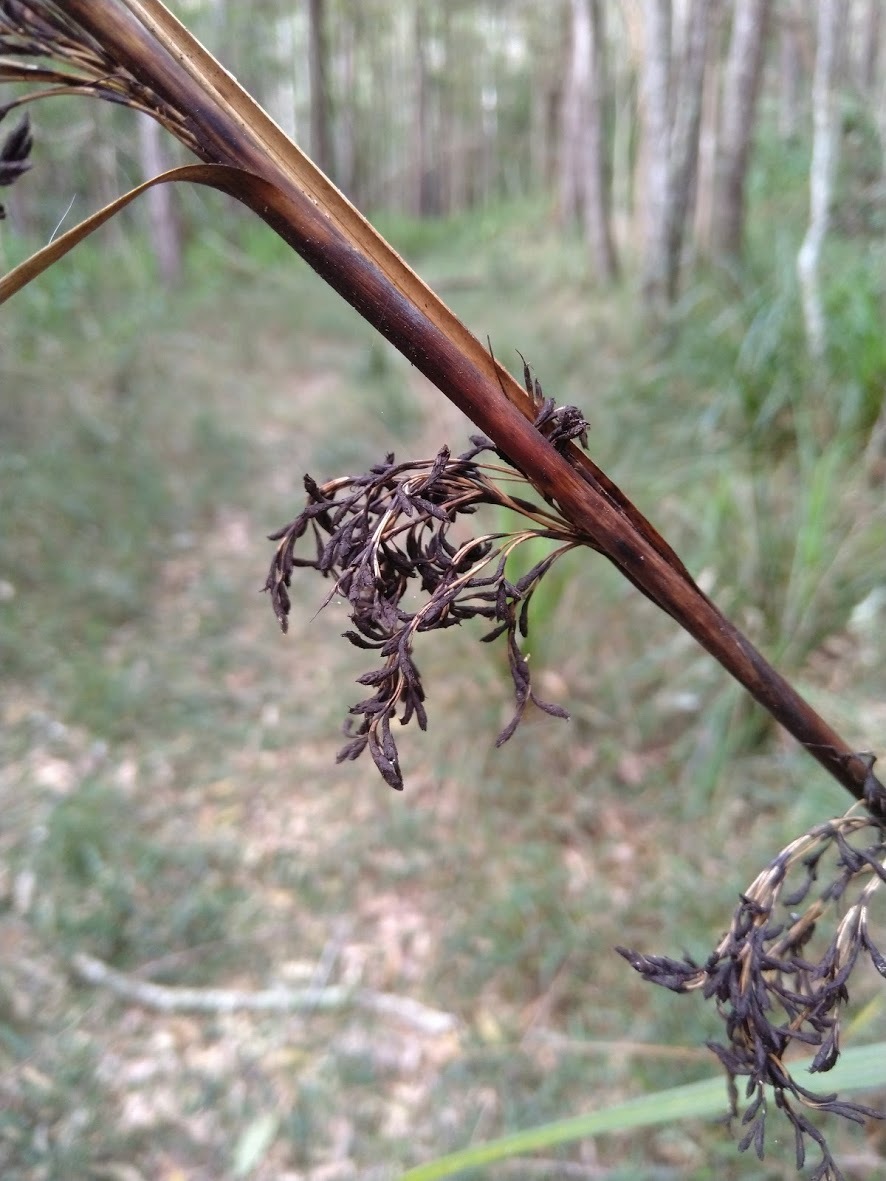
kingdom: Plantae
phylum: Tracheophyta
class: Liliopsida
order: Poales
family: Cyperaceae
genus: Gahnia
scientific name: Gahnia clarkei
